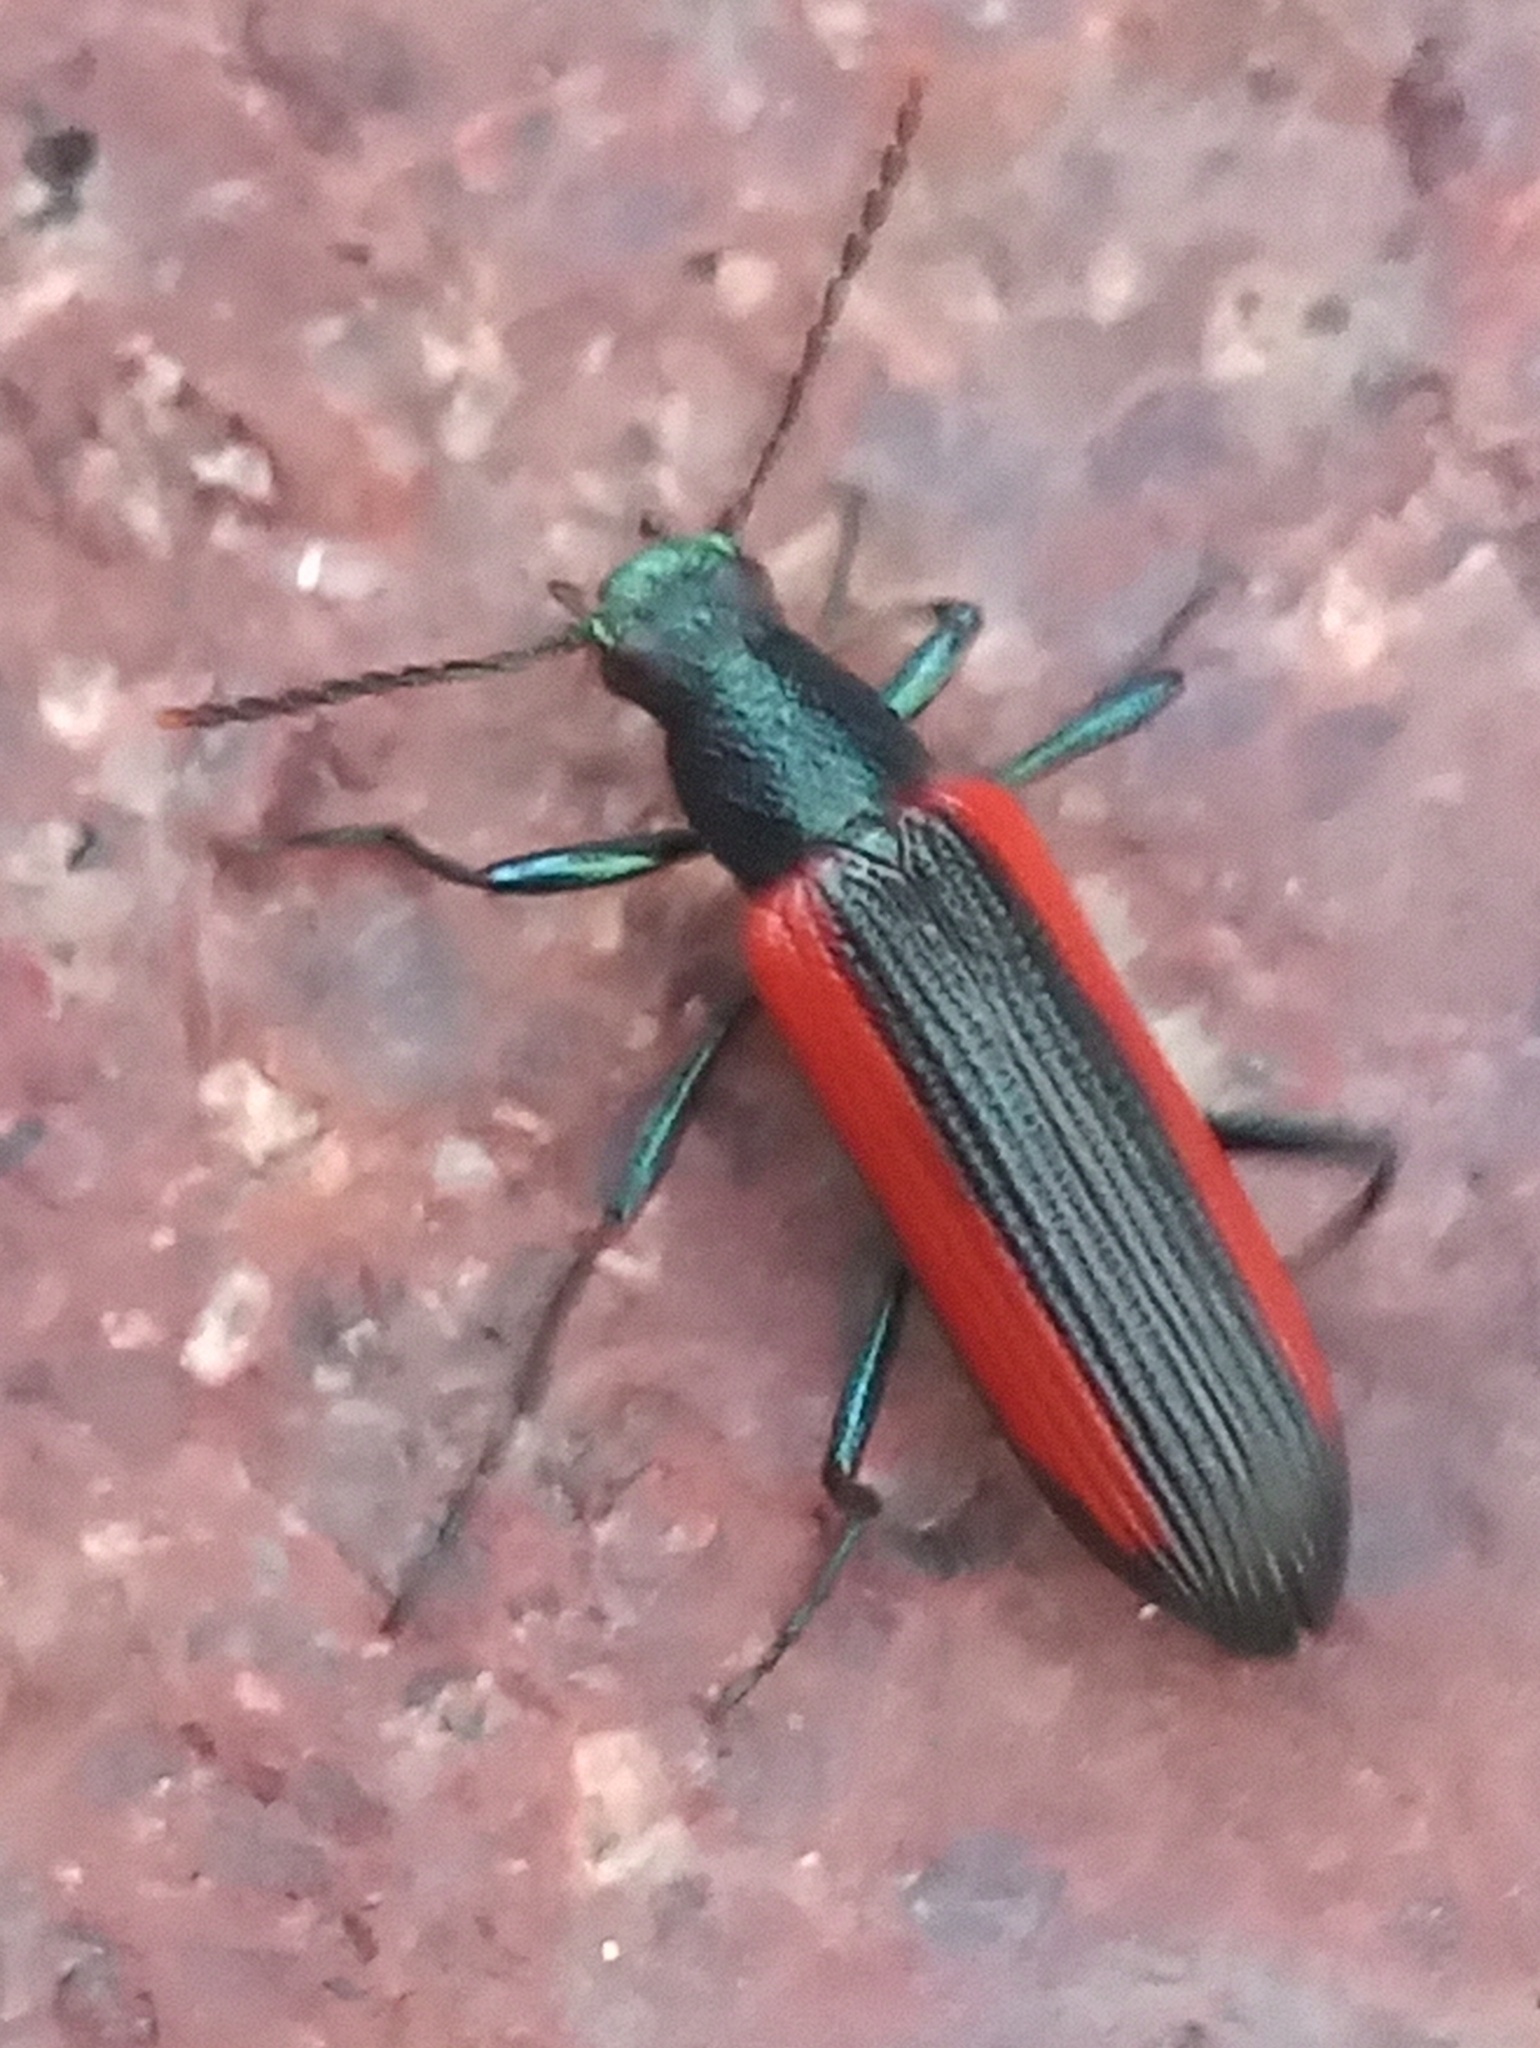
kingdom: Animalia
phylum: Arthropoda
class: Insecta
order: Coleoptera
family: Tenebrionidae
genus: Strongylium
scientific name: Strongylium championi
